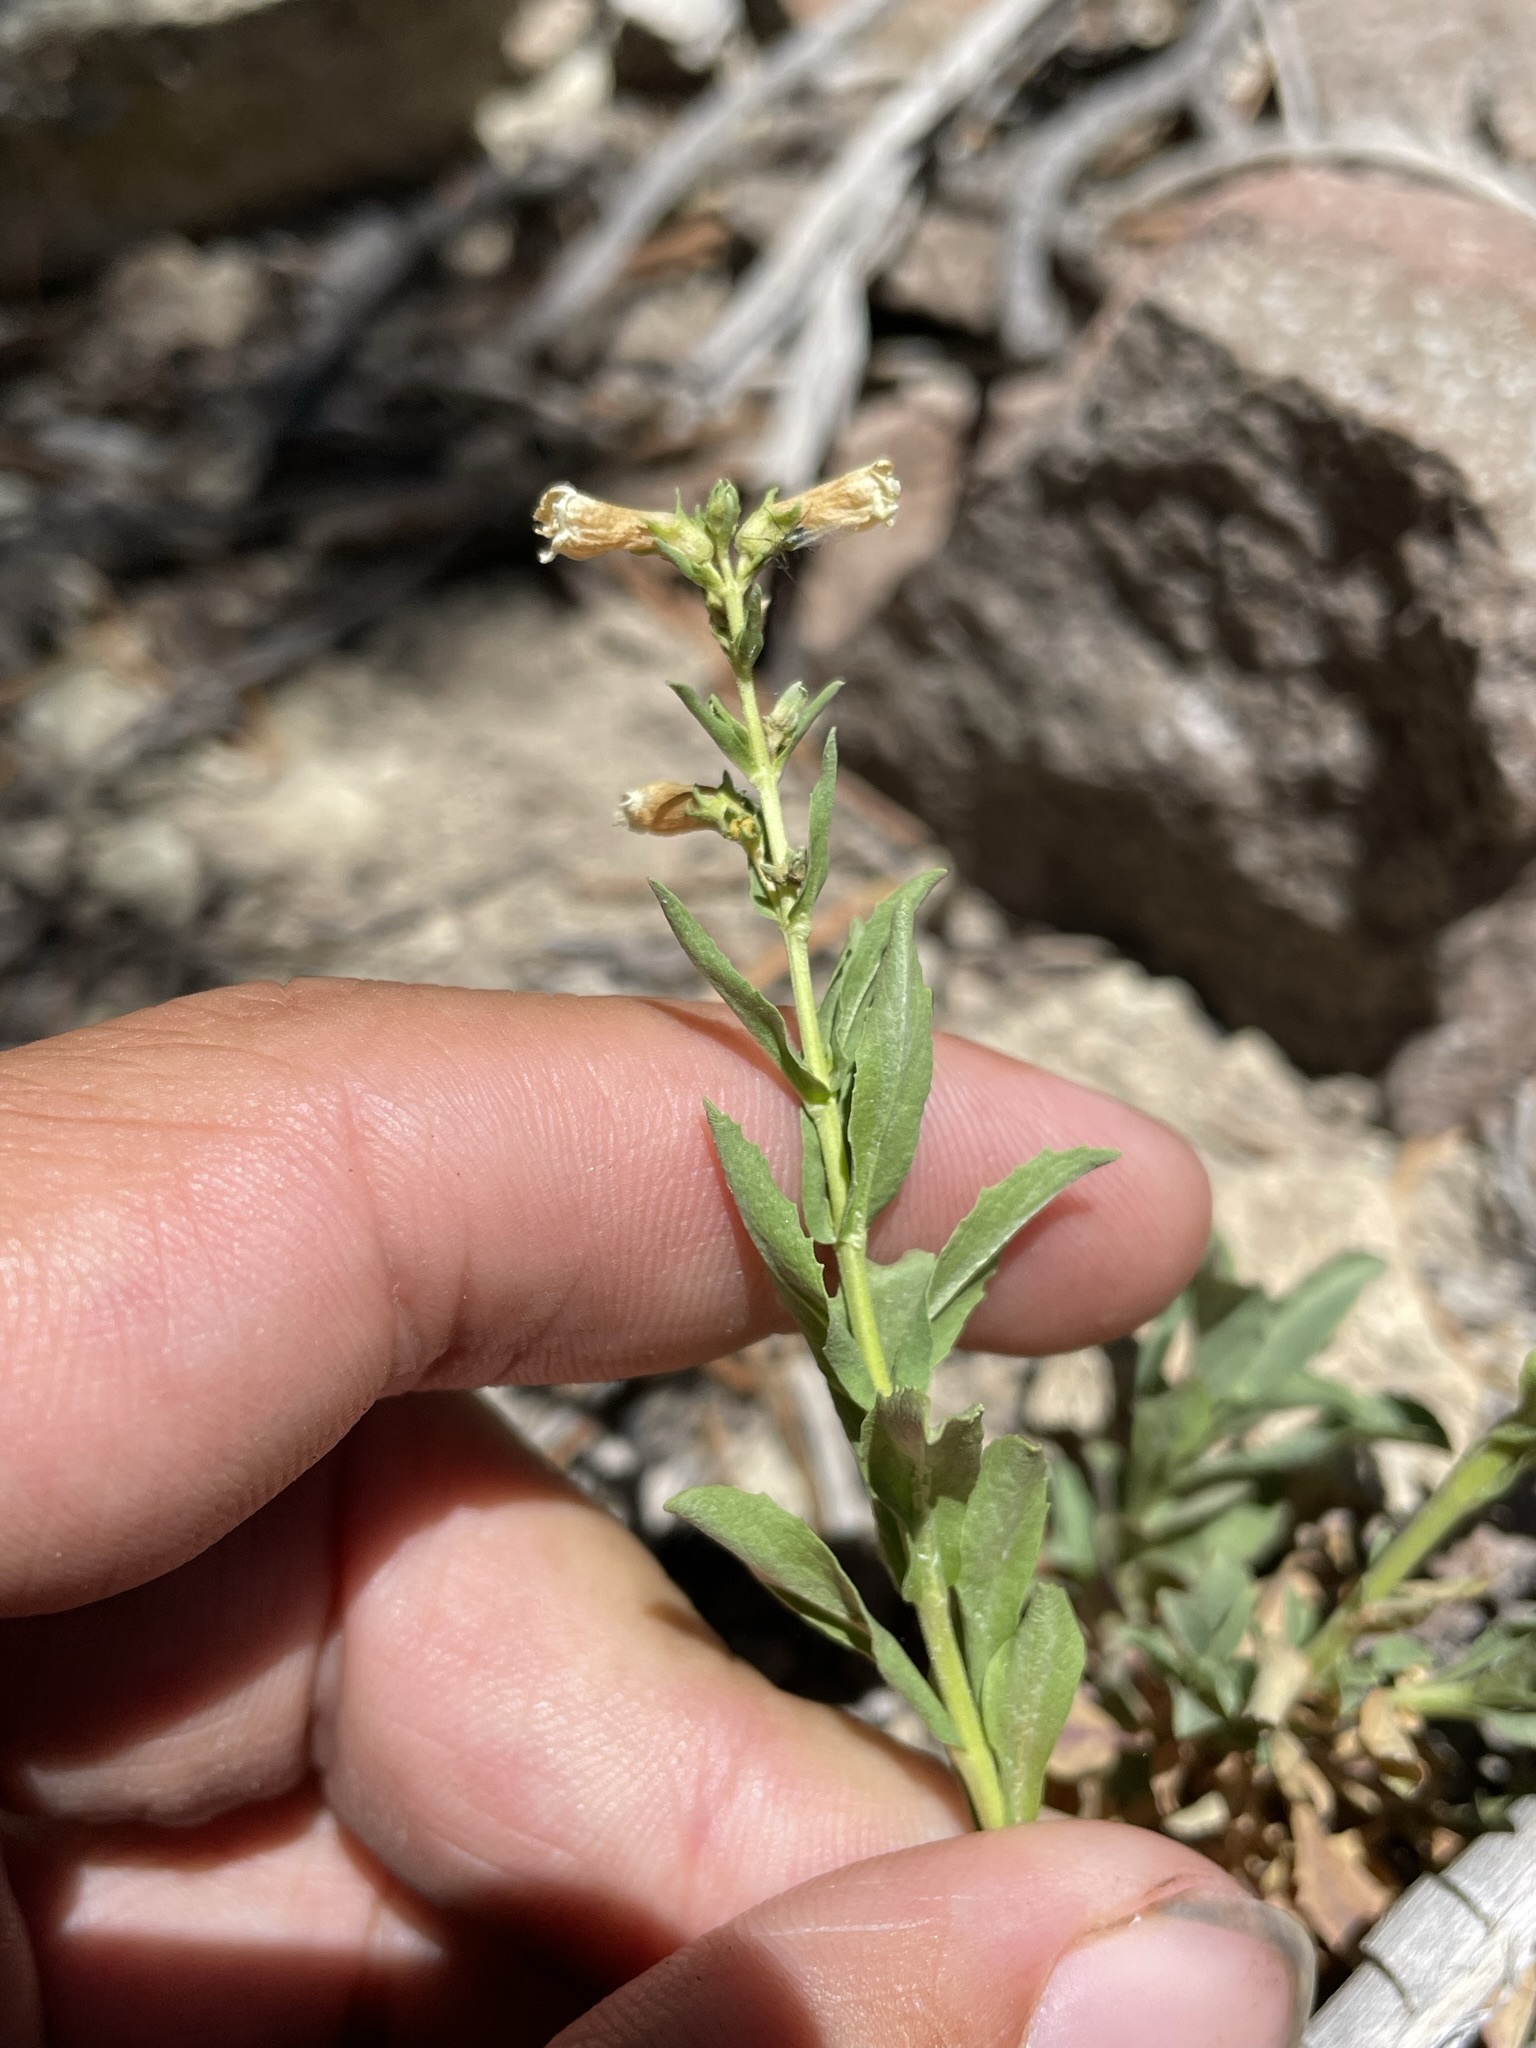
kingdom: Plantae
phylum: Tracheophyta
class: Magnoliopsida
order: Lamiales
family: Plantaginaceae
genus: Penstemon
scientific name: Penstemon deustus
